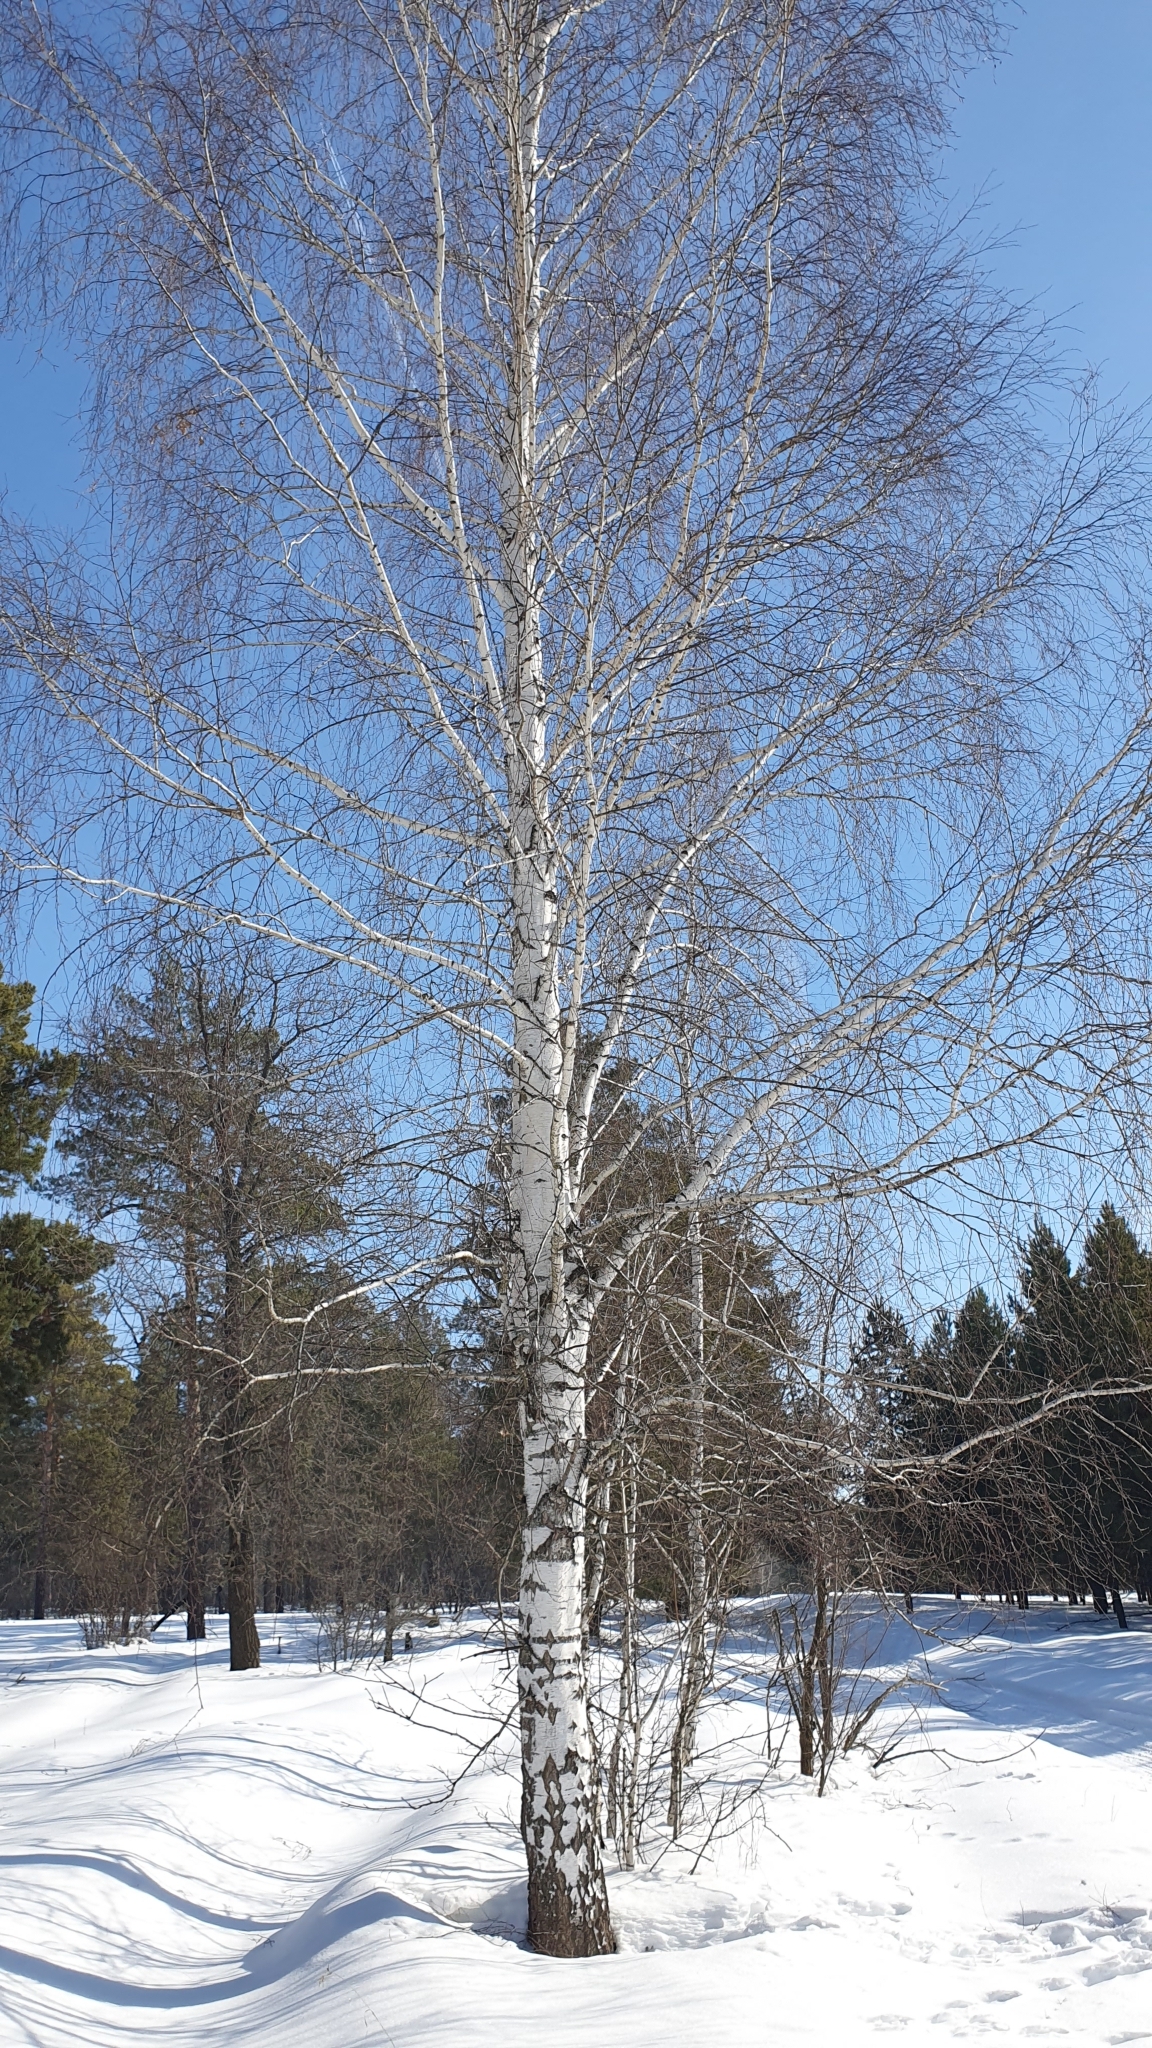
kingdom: Plantae
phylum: Tracheophyta
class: Magnoliopsida
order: Fagales
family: Betulaceae
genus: Betula
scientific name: Betula pendula
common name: Silver birch
